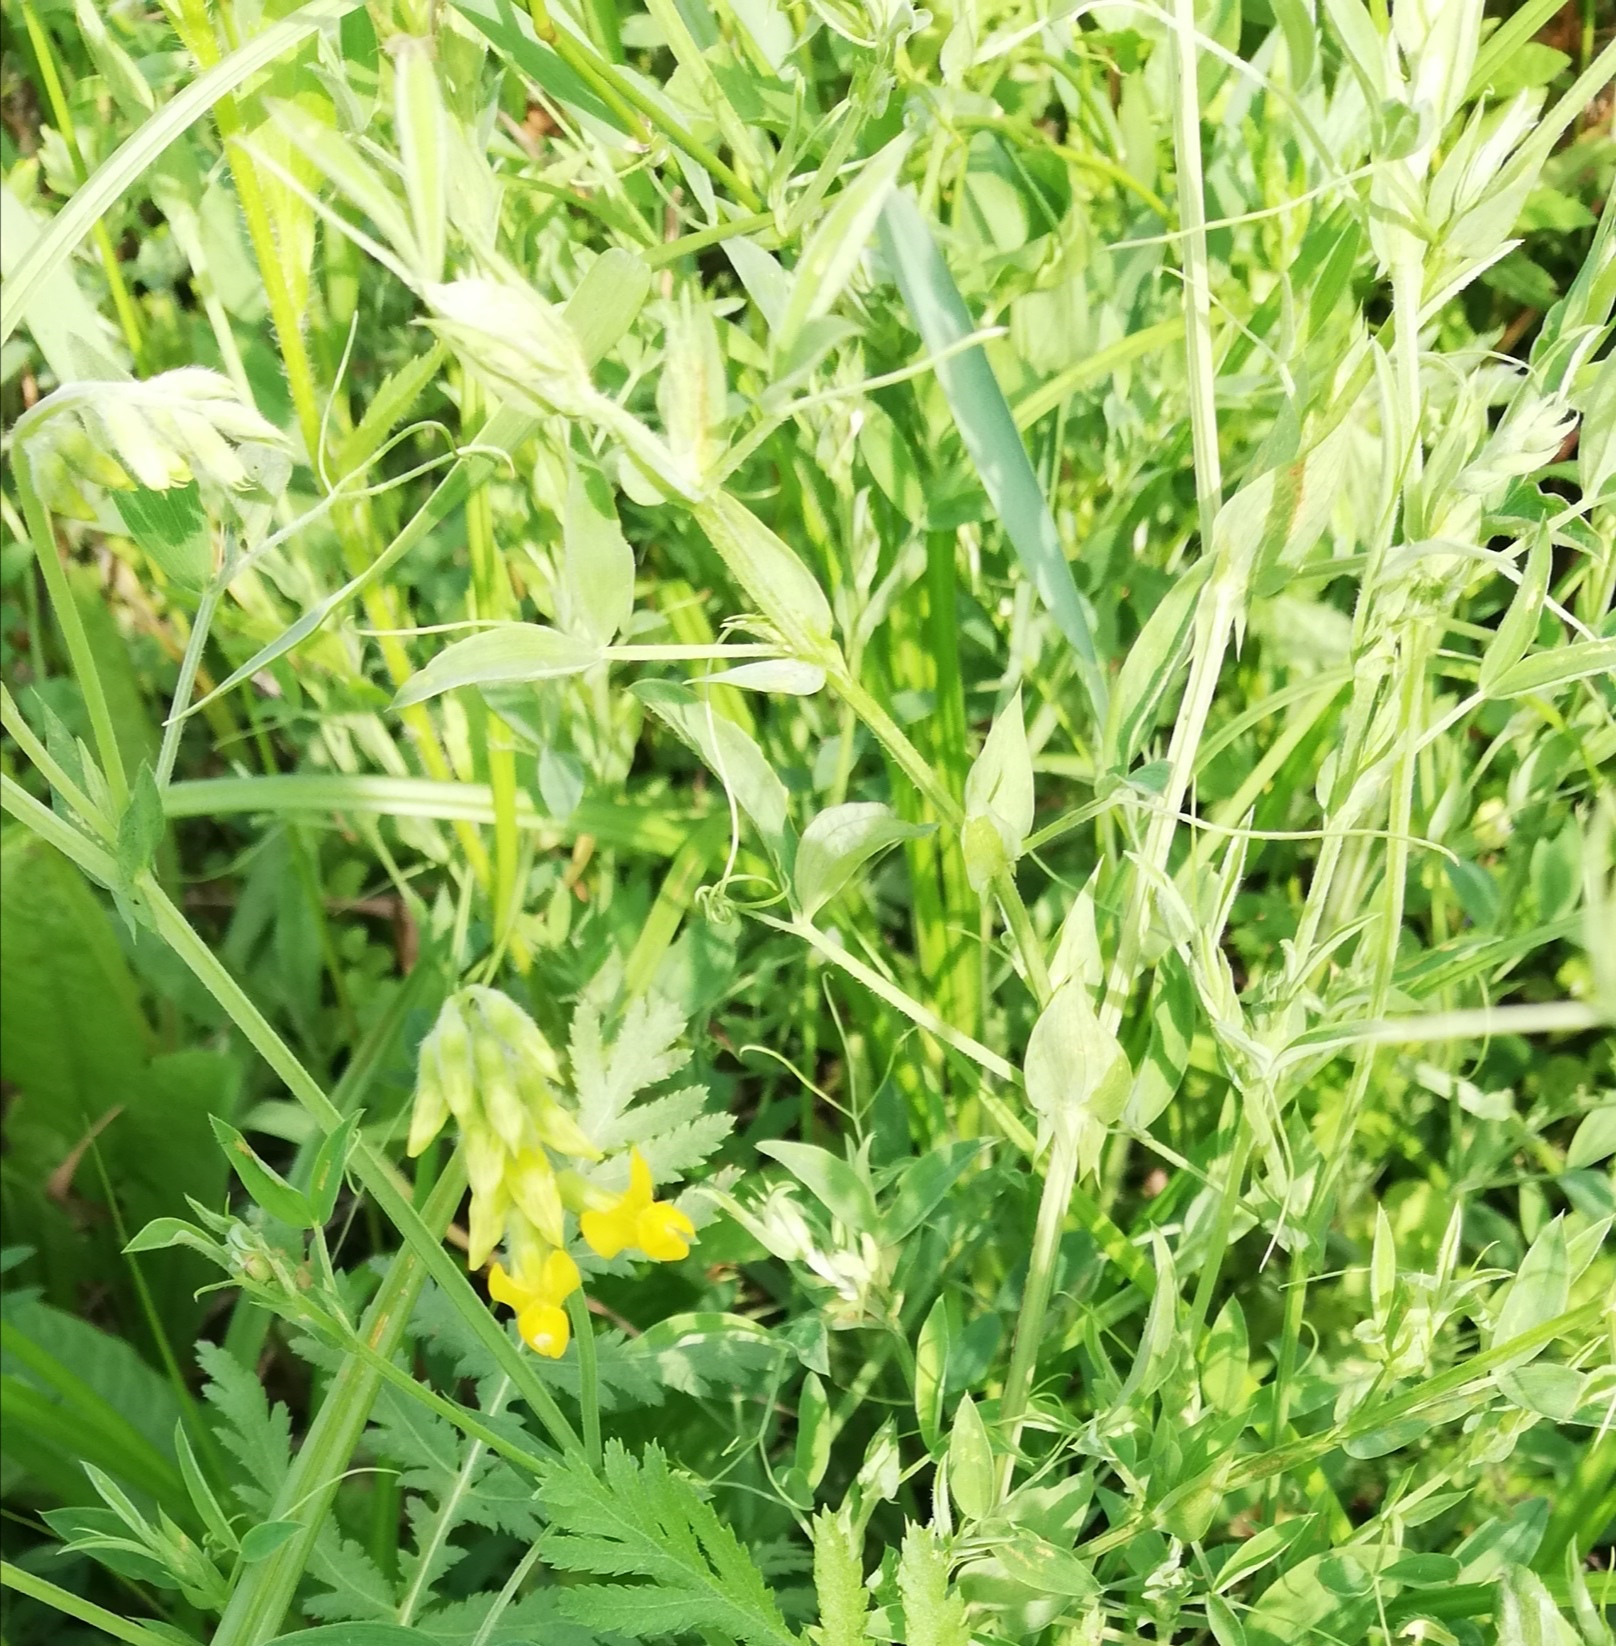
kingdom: Plantae
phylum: Tracheophyta
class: Magnoliopsida
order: Fabales
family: Fabaceae
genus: Lathyrus
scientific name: Lathyrus pratensis
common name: Meadow vetchling
